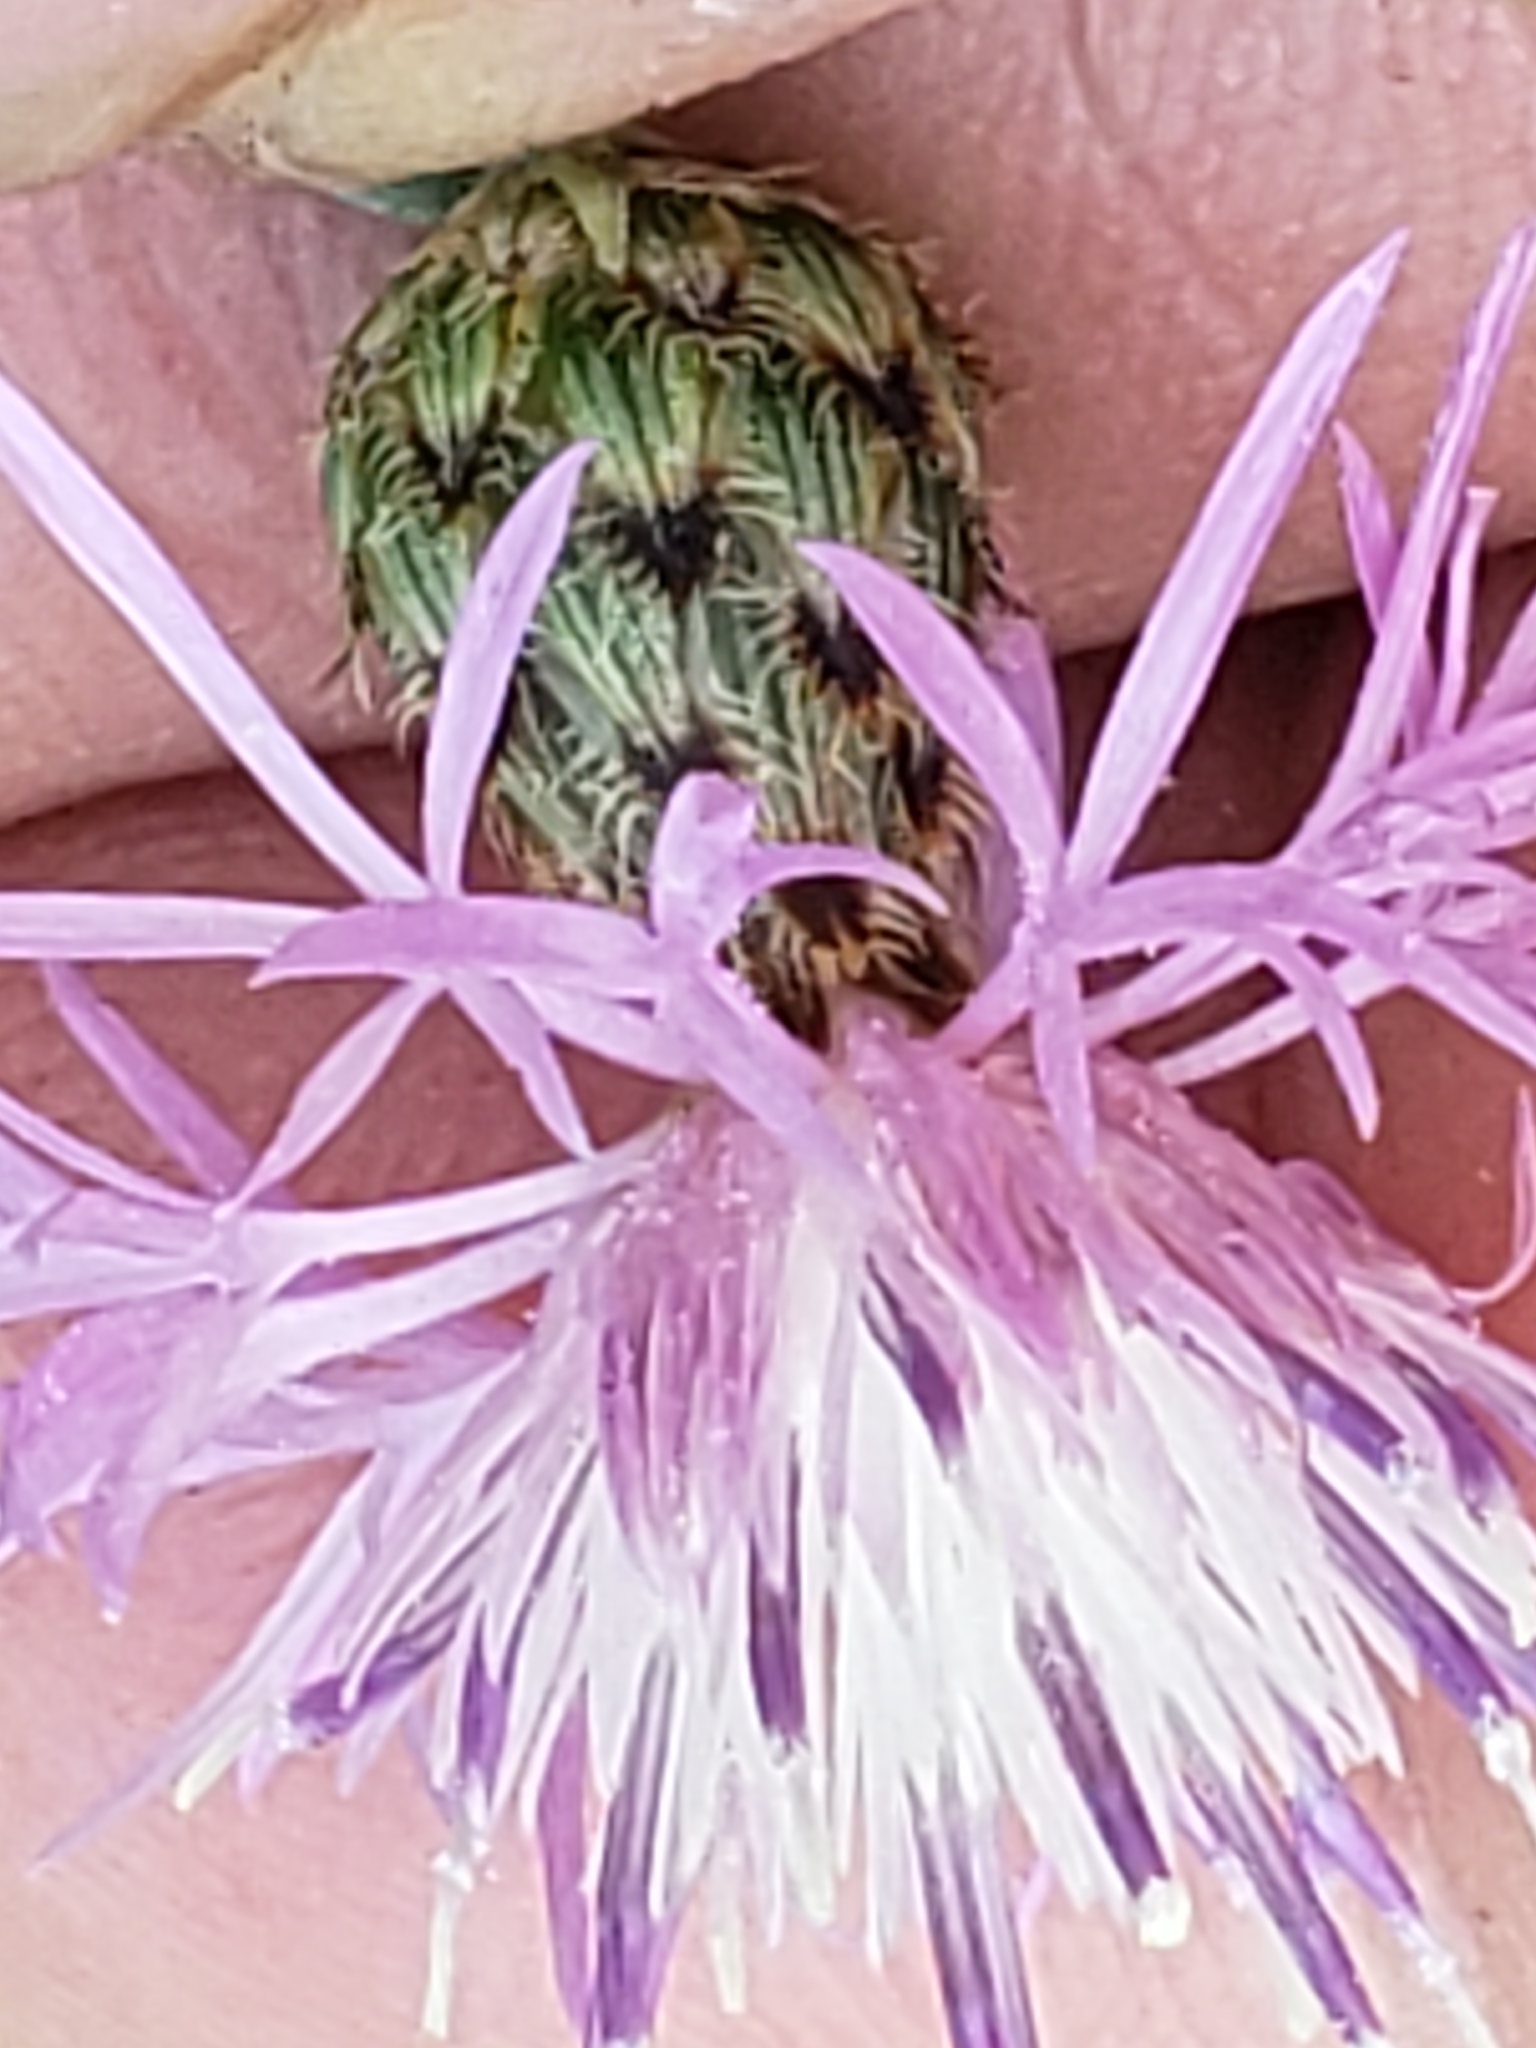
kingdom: Plantae
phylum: Tracheophyta
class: Magnoliopsida
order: Asterales
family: Asteraceae
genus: Centaurea
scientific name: Centaurea stoebe
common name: Spotted knapweed
